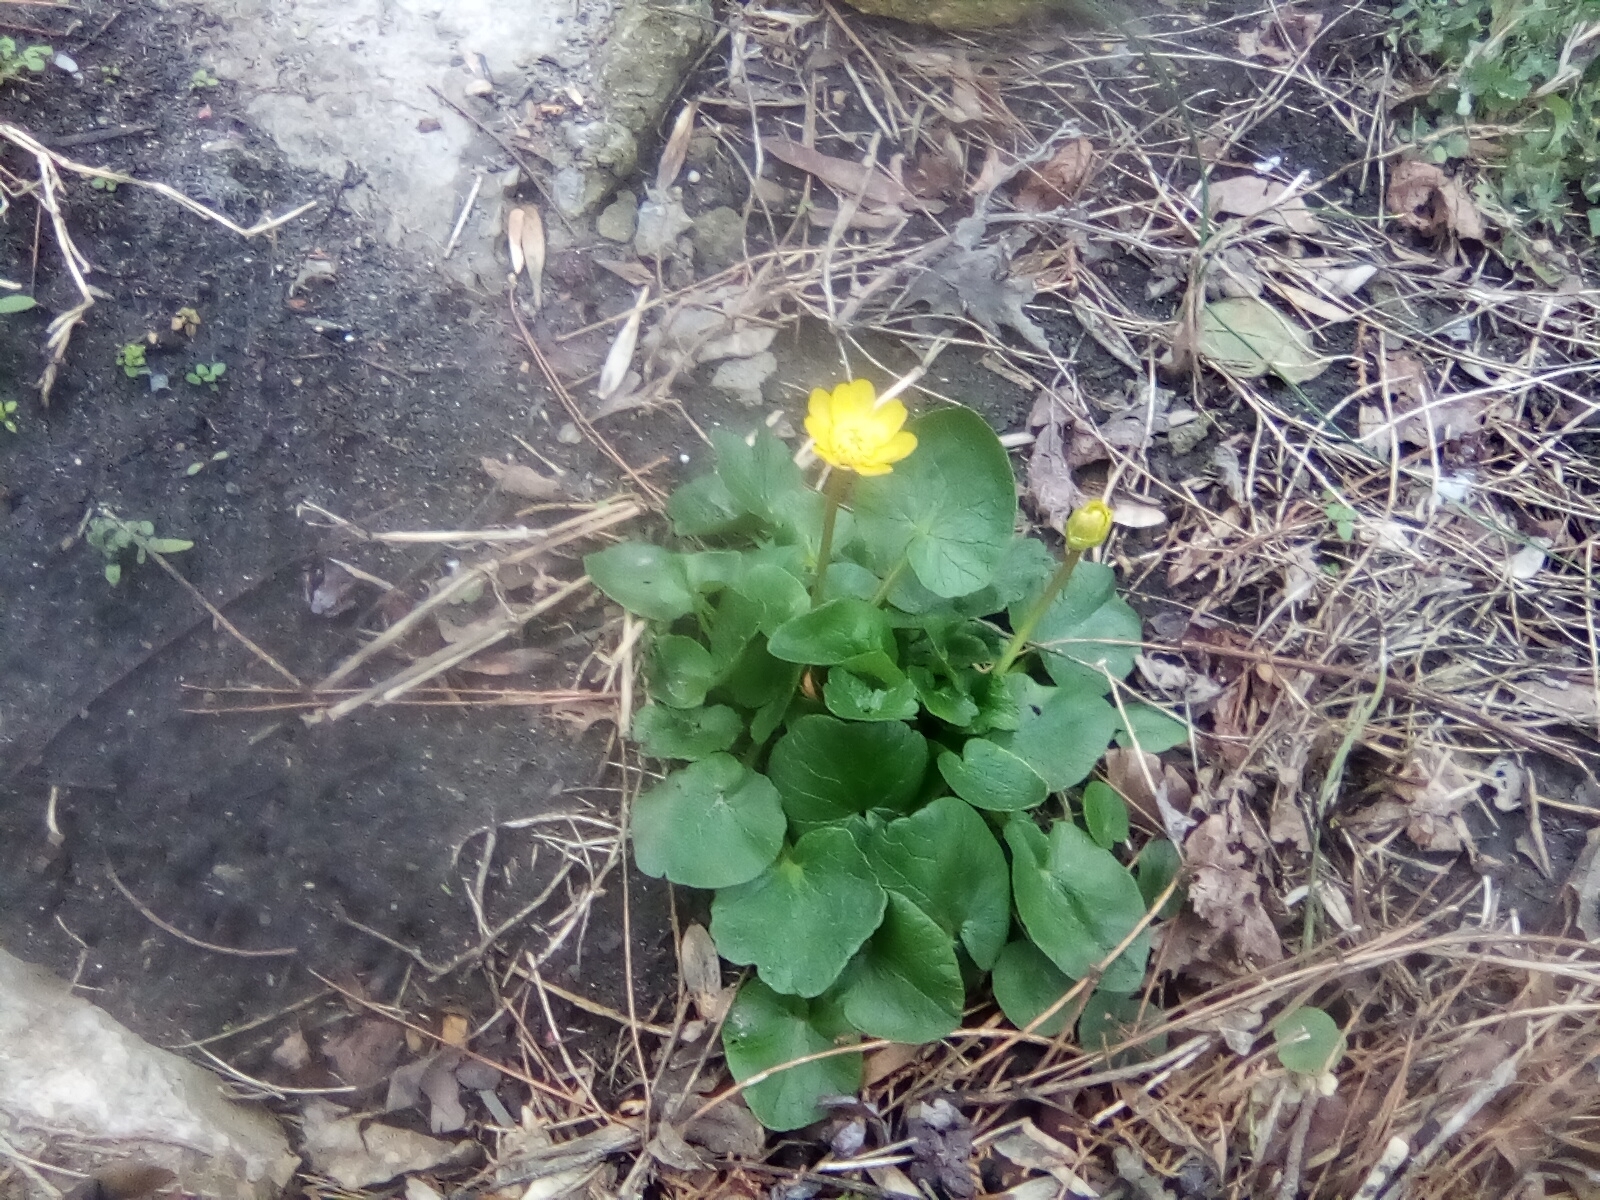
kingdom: Plantae
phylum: Tracheophyta
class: Magnoliopsida
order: Ranunculales
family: Ranunculaceae
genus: Ficaria
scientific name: Ficaria verna
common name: Lesser celandine
